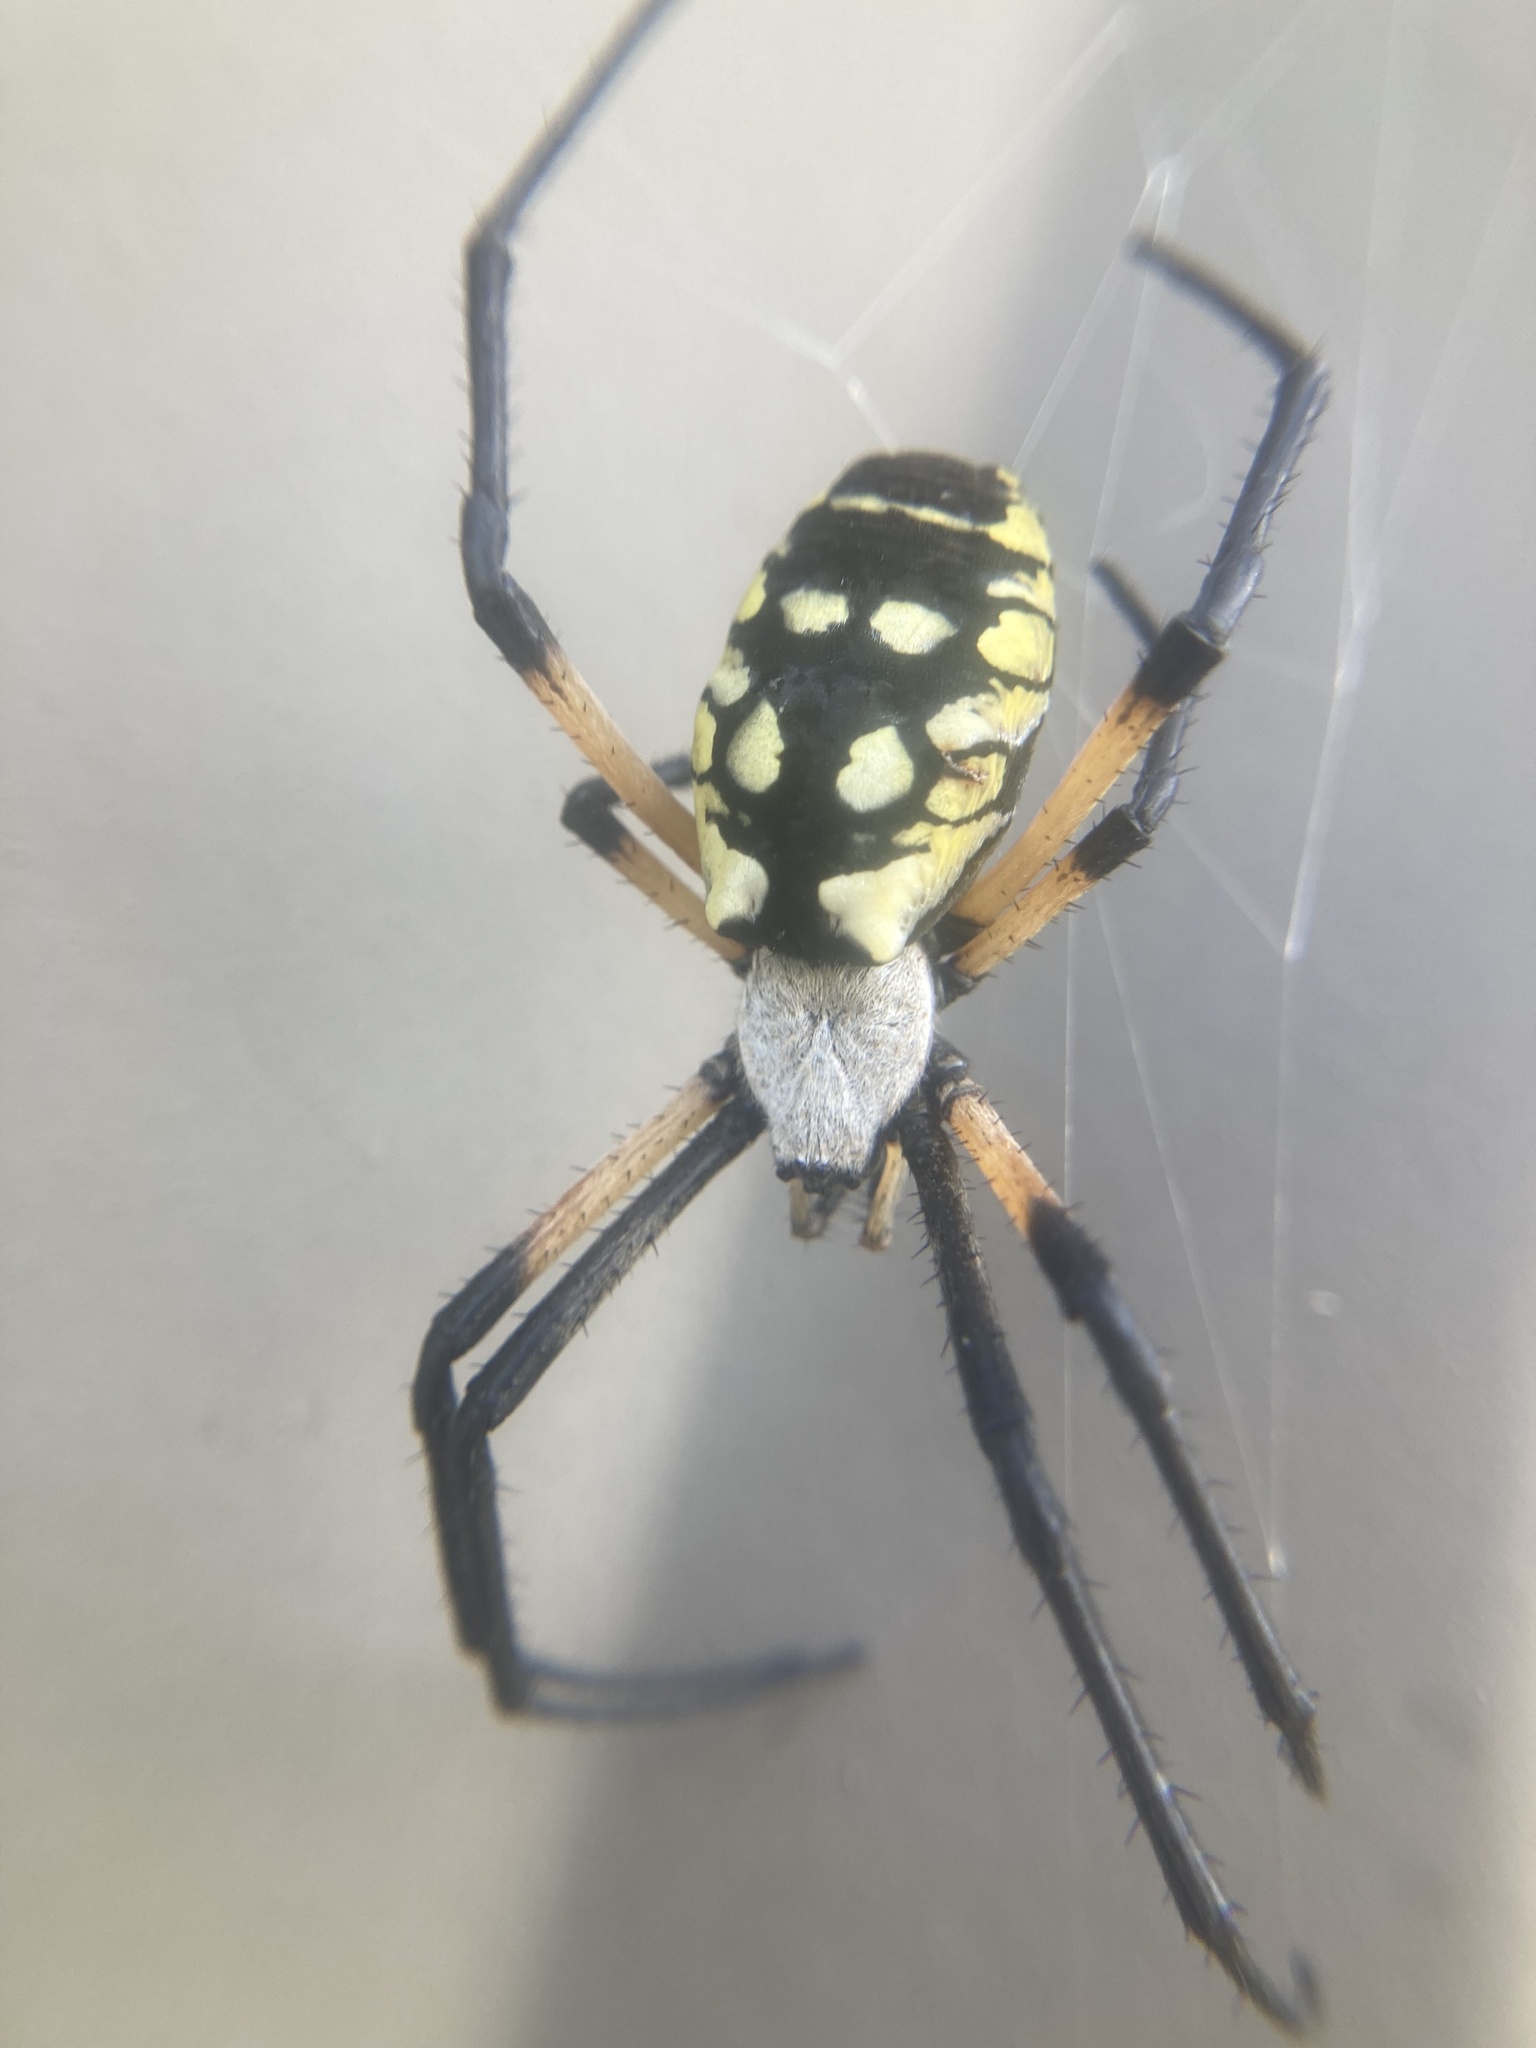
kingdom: Animalia
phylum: Arthropoda
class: Arachnida
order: Araneae
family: Araneidae
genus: Argiope
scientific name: Argiope aurantia
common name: Orb weavers
